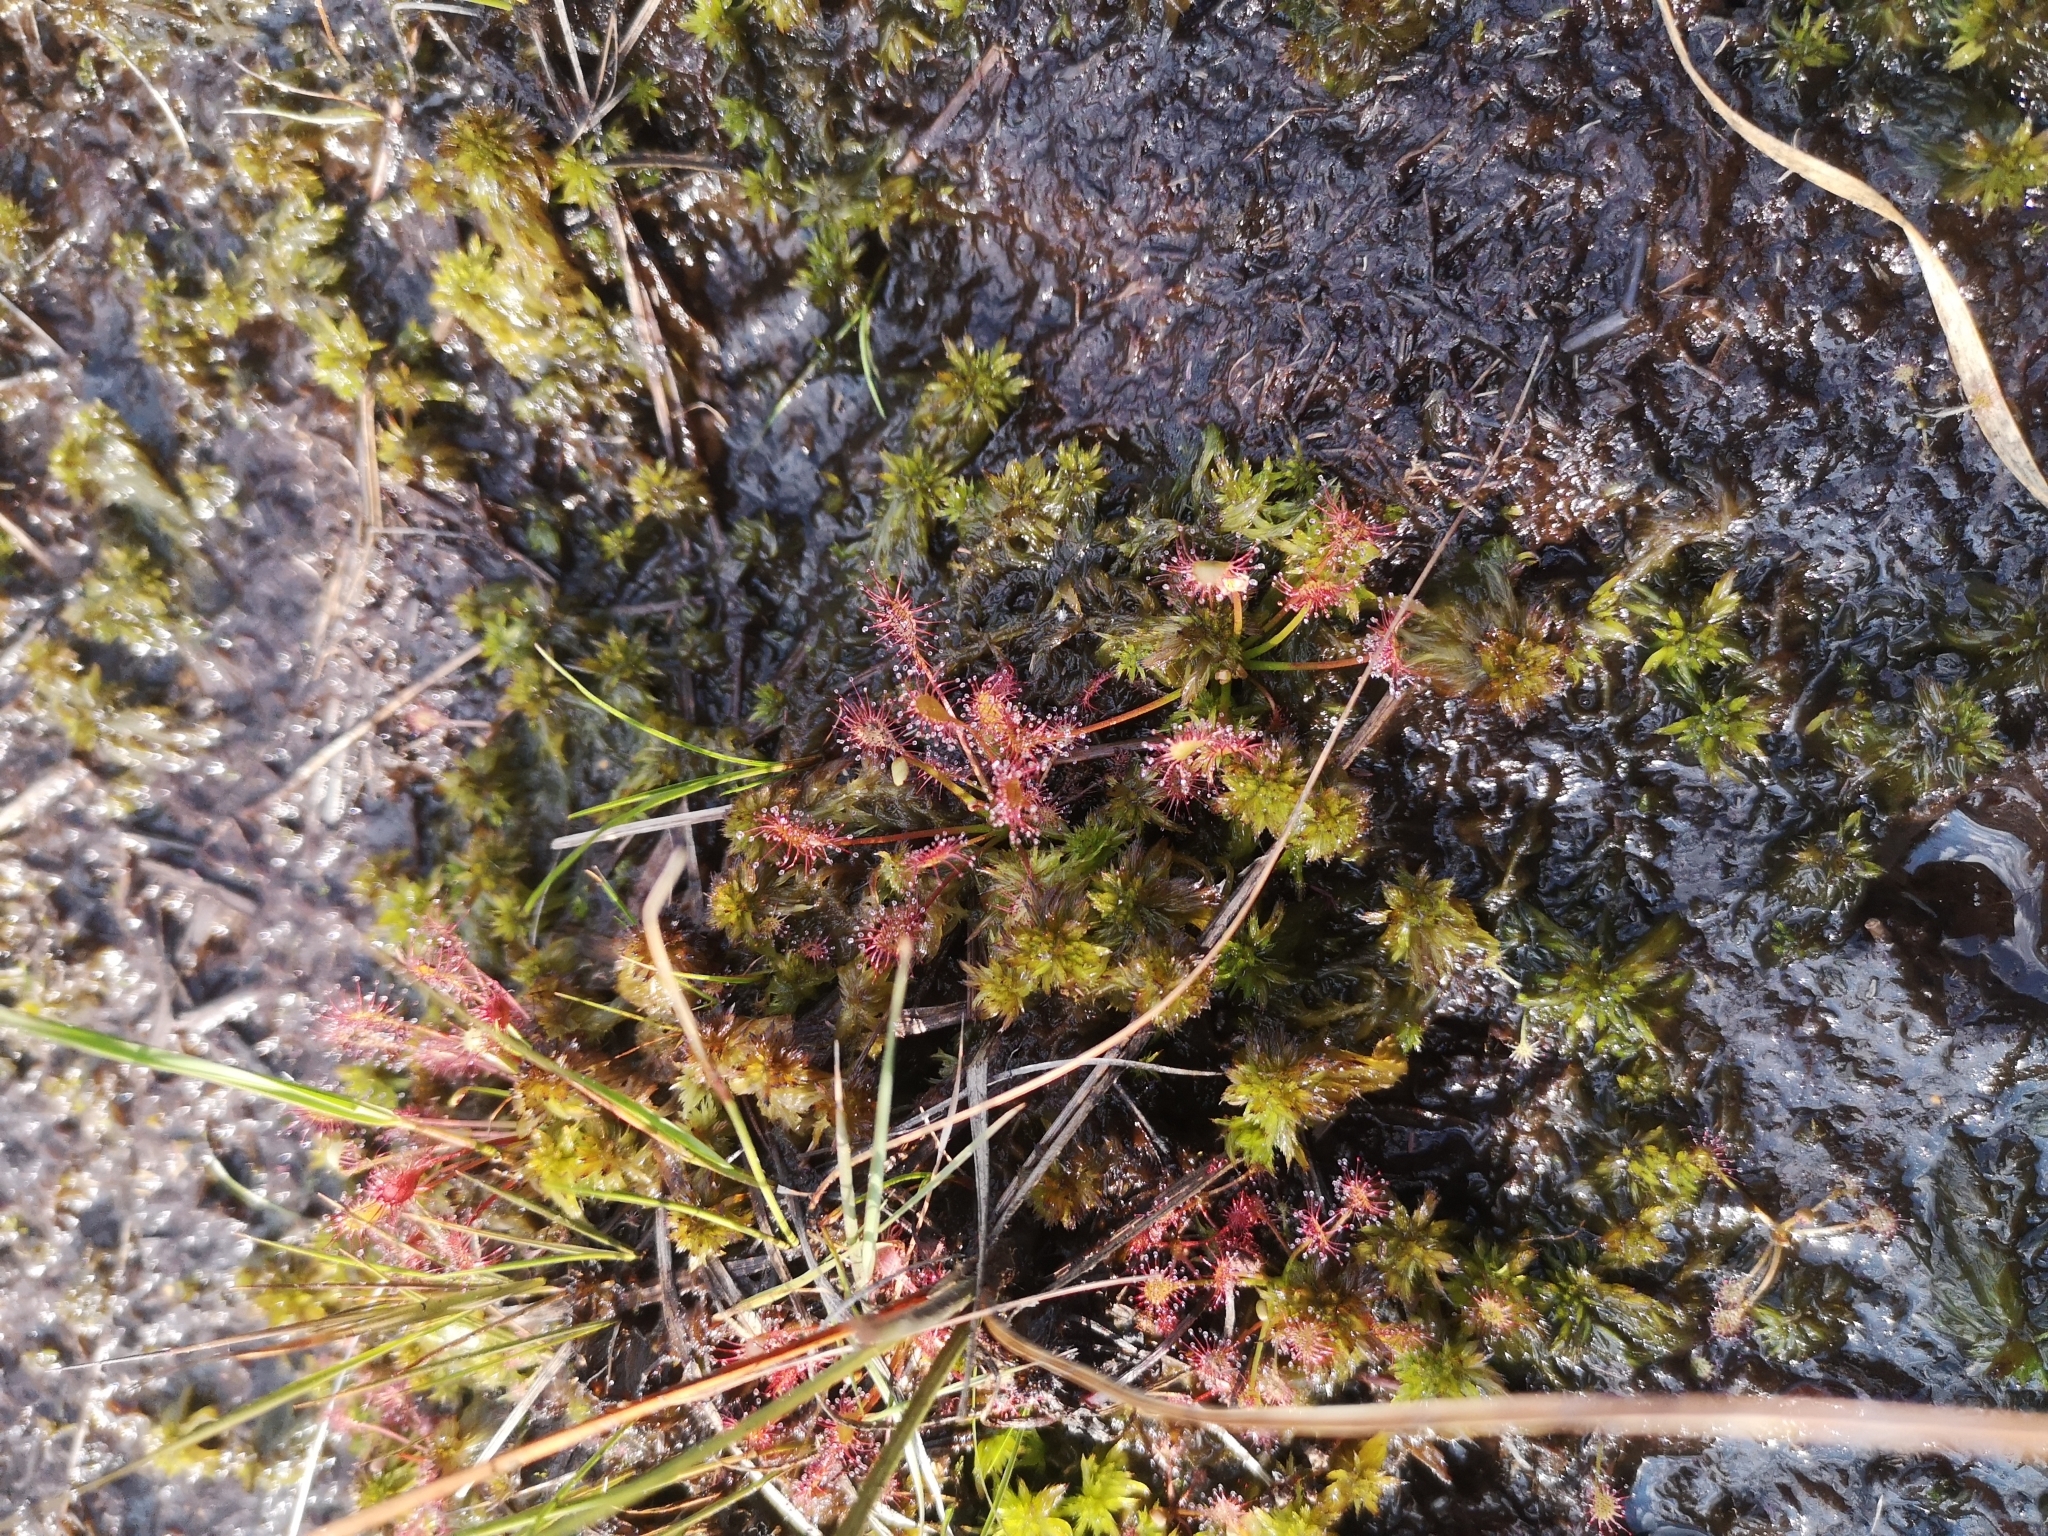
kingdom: Plantae
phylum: Tracheophyta
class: Magnoliopsida
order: Caryophyllales
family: Droseraceae
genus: Drosera
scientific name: Drosera intermedia
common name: Oblong-leaved sundew
